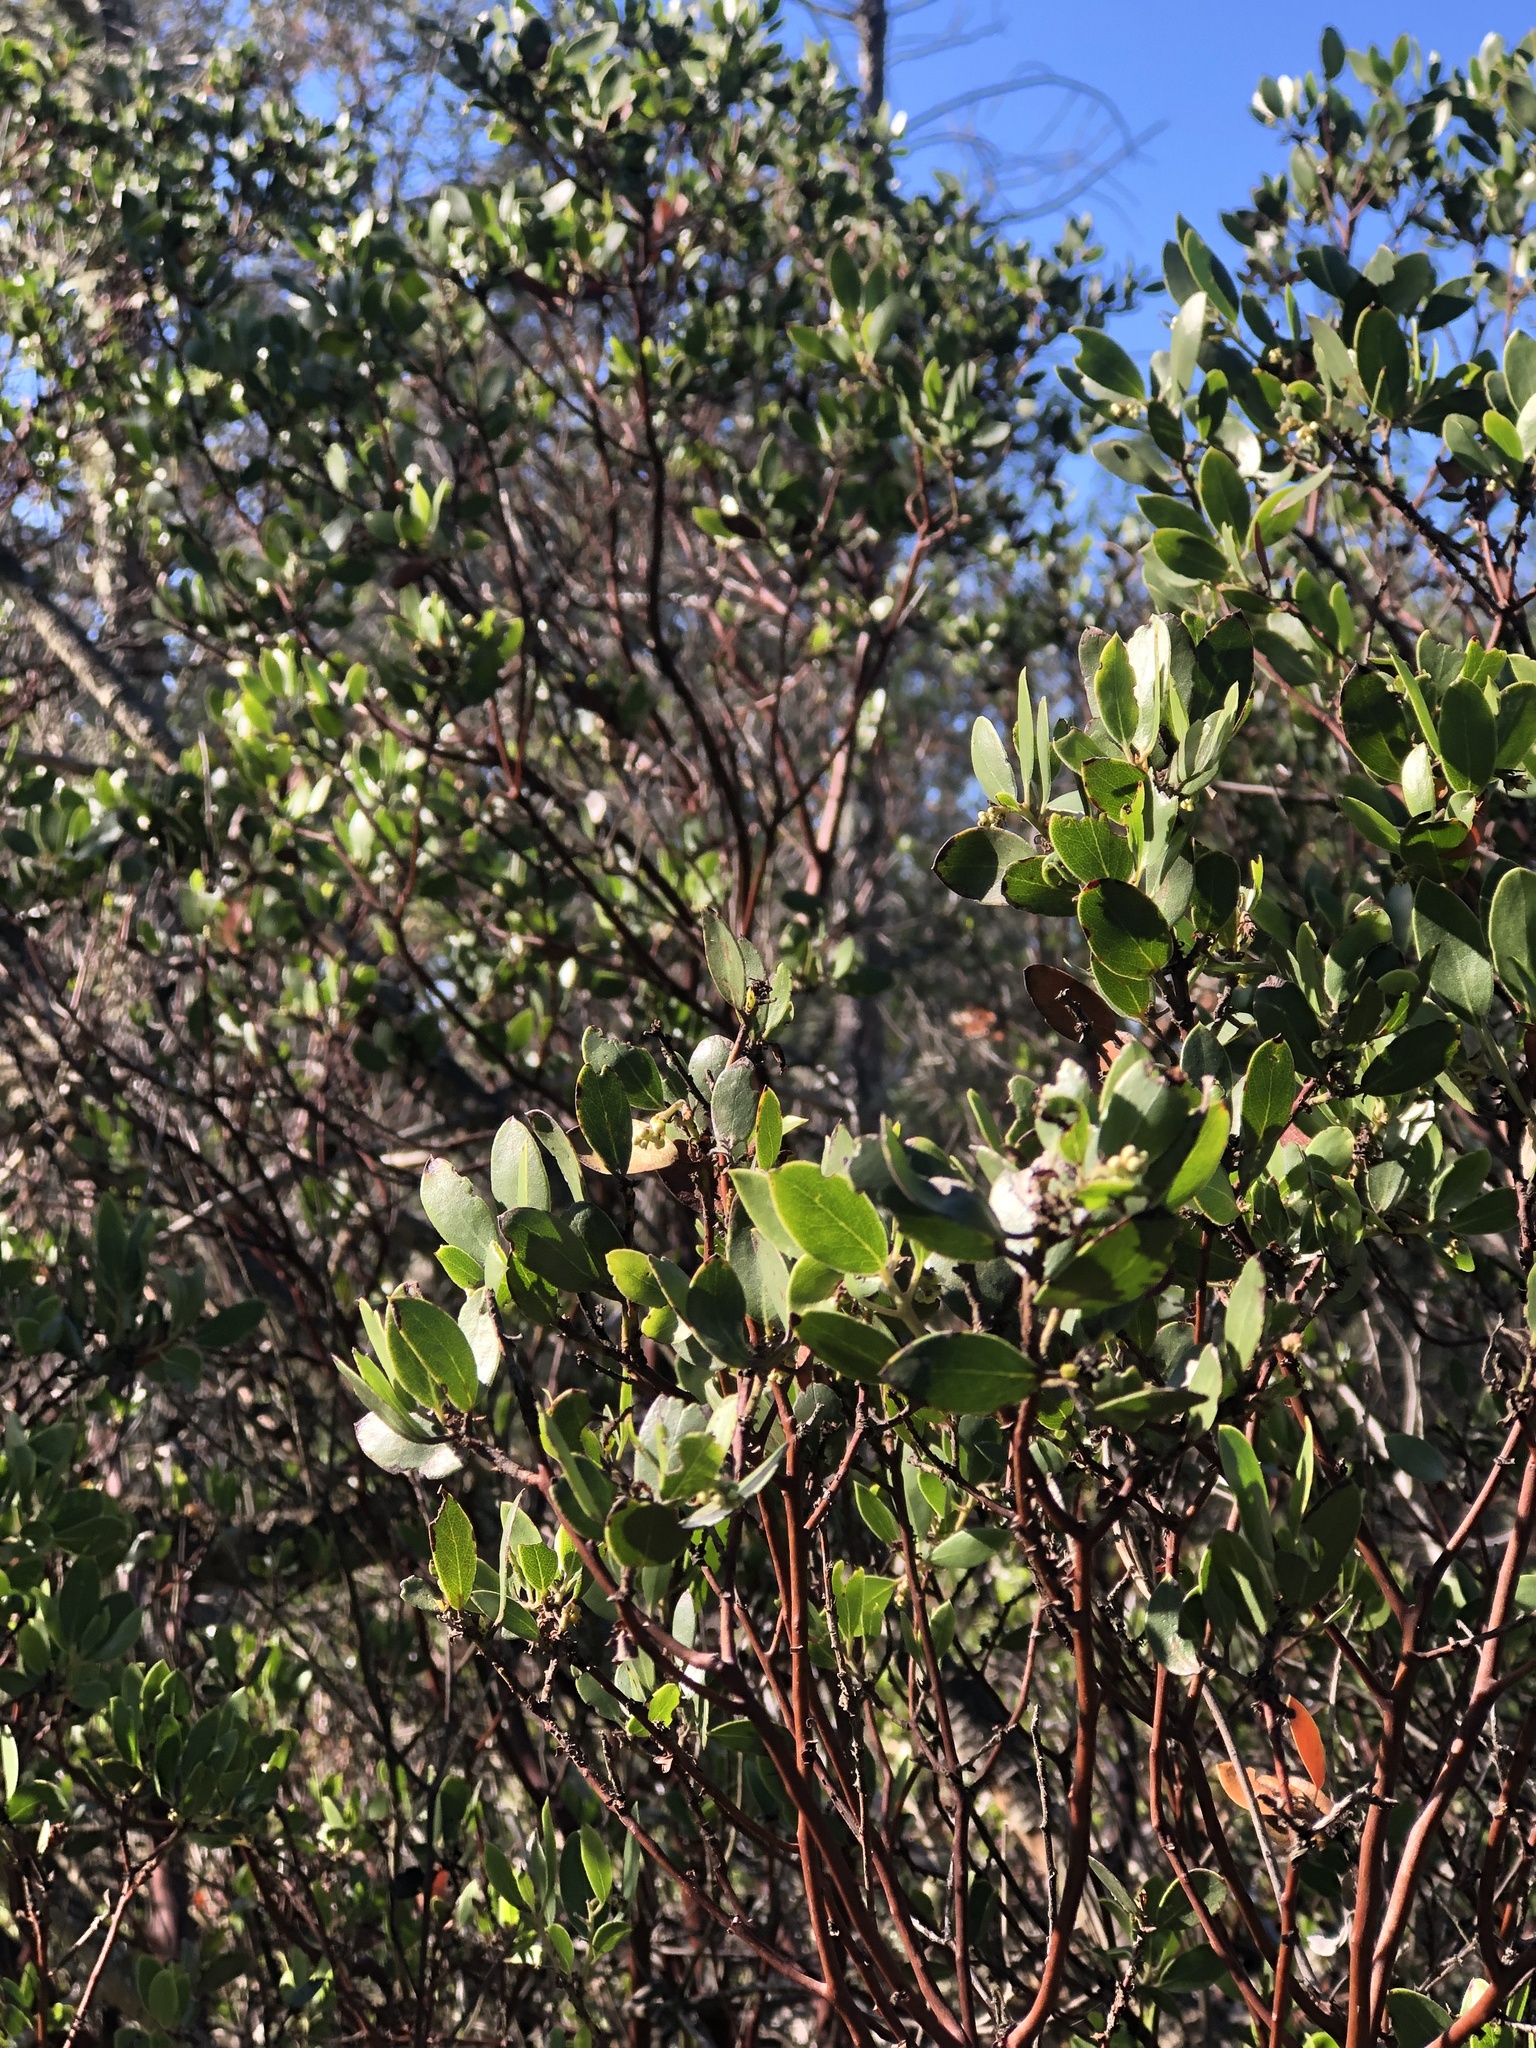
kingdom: Plantae
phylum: Tracheophyta
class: Magnoliopsida
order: Ericales
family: Ericaceae
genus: Arctostaphylos
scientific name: Arctostaphylos manzanita
